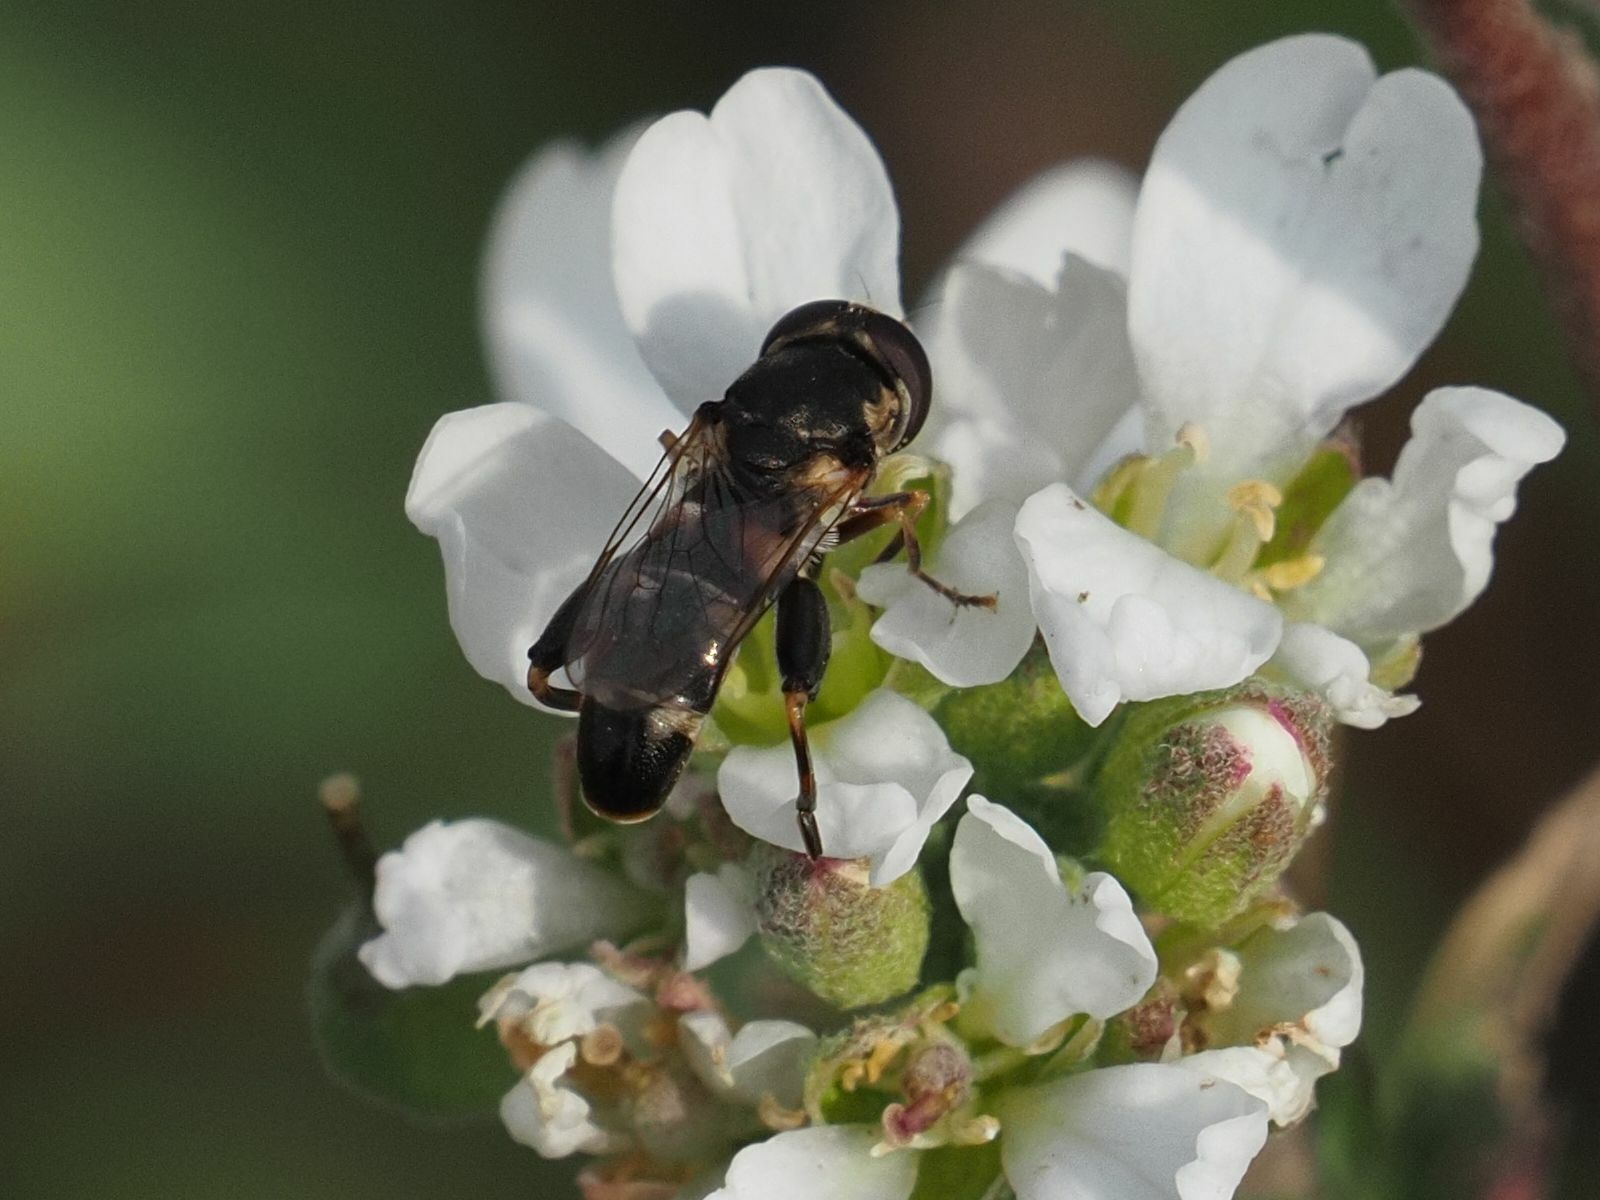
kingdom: Animalia
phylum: Arthropoda
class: Insecta
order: Diptera
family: Syrphidae
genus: Syritta
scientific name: Syritta pipiens
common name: Hover fly
